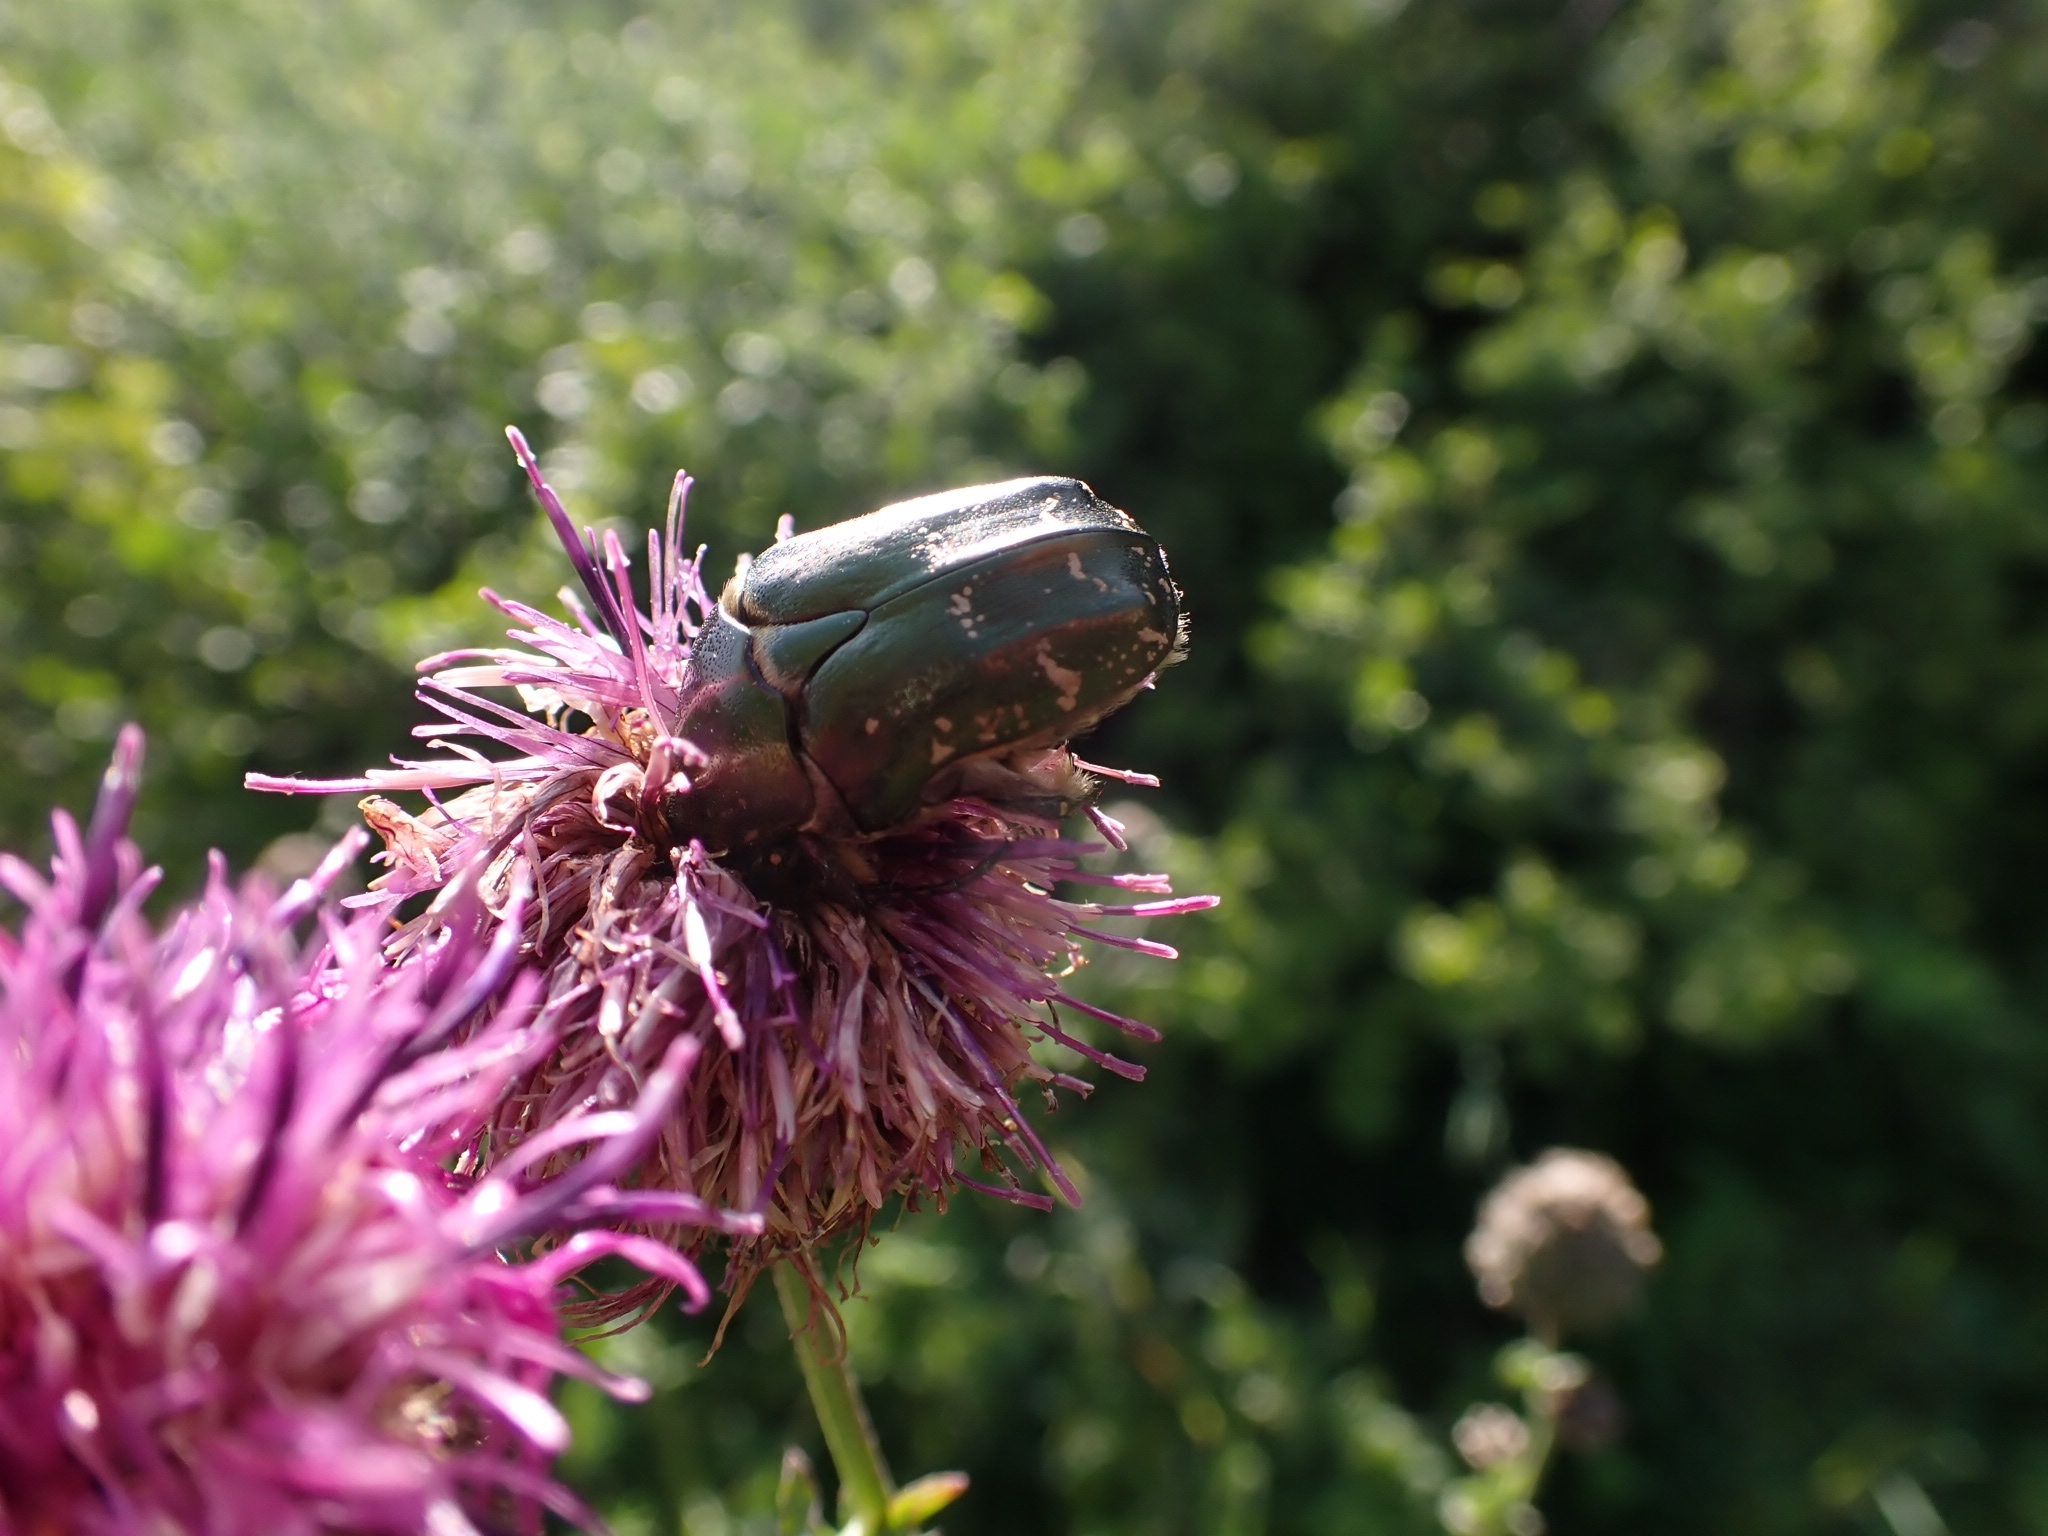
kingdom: Animalia
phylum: Arthropoda
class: Insecta
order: Coleoptera
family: Scarabaeidae
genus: Protaetia
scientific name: Protaetia cuprea
